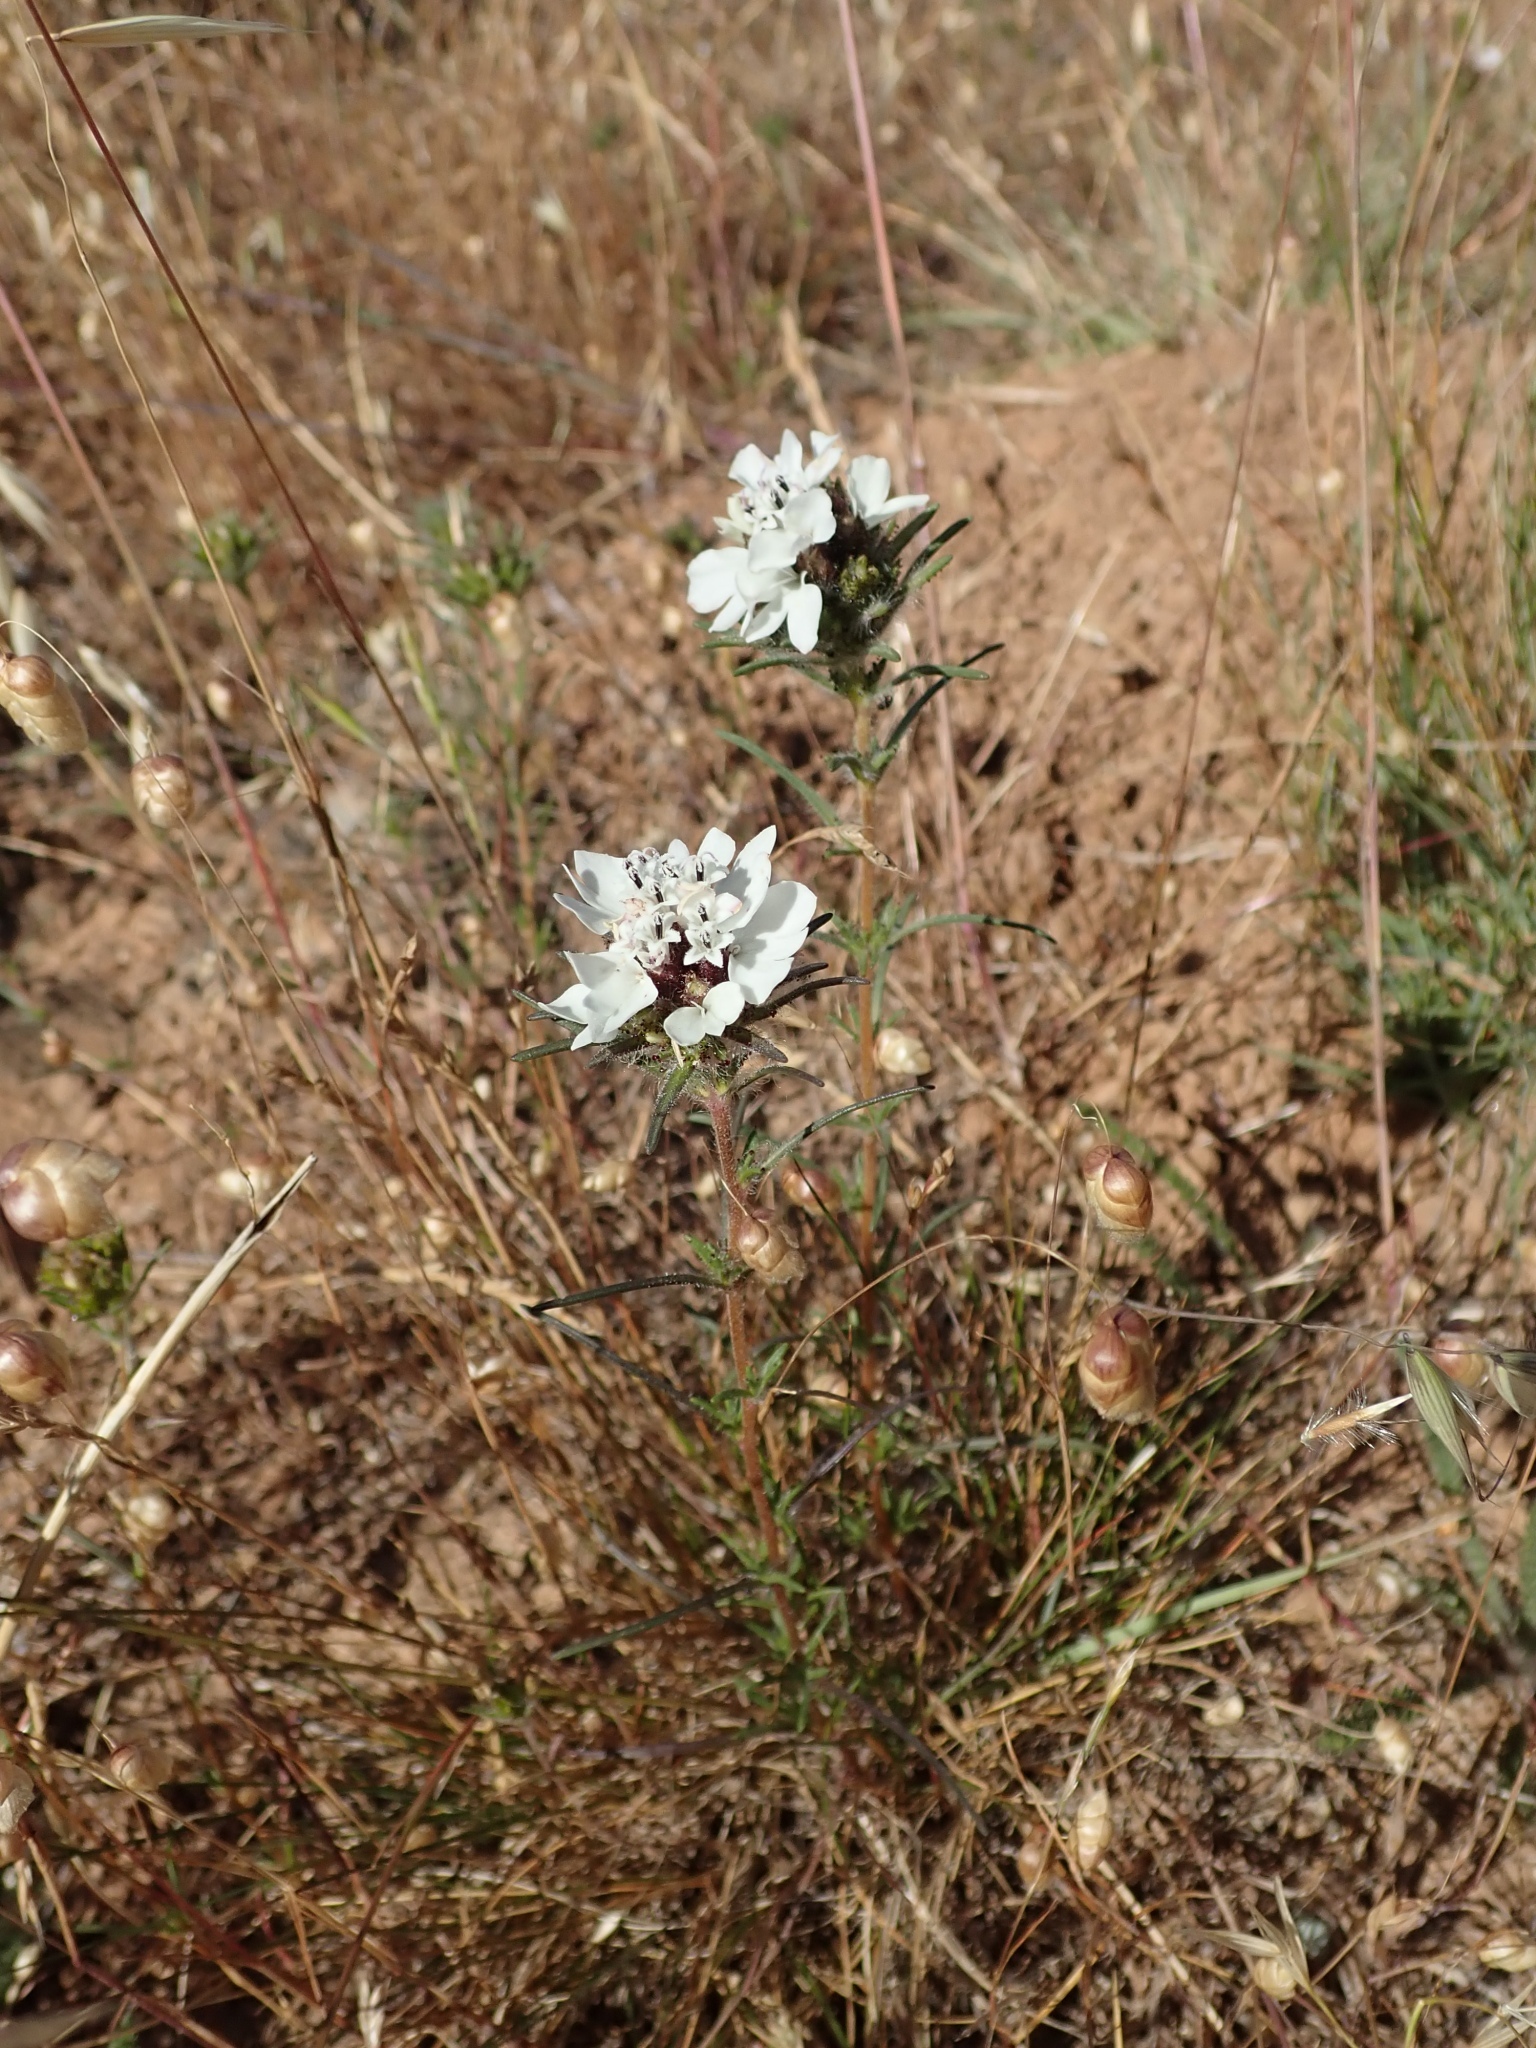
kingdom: Plantae
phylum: Tracheophyta
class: Magnoliopsida
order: Asterales
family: Asteraceae
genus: Calycadenia
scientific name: Calycadenia multiglandulosa
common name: Sticky calycadenia
